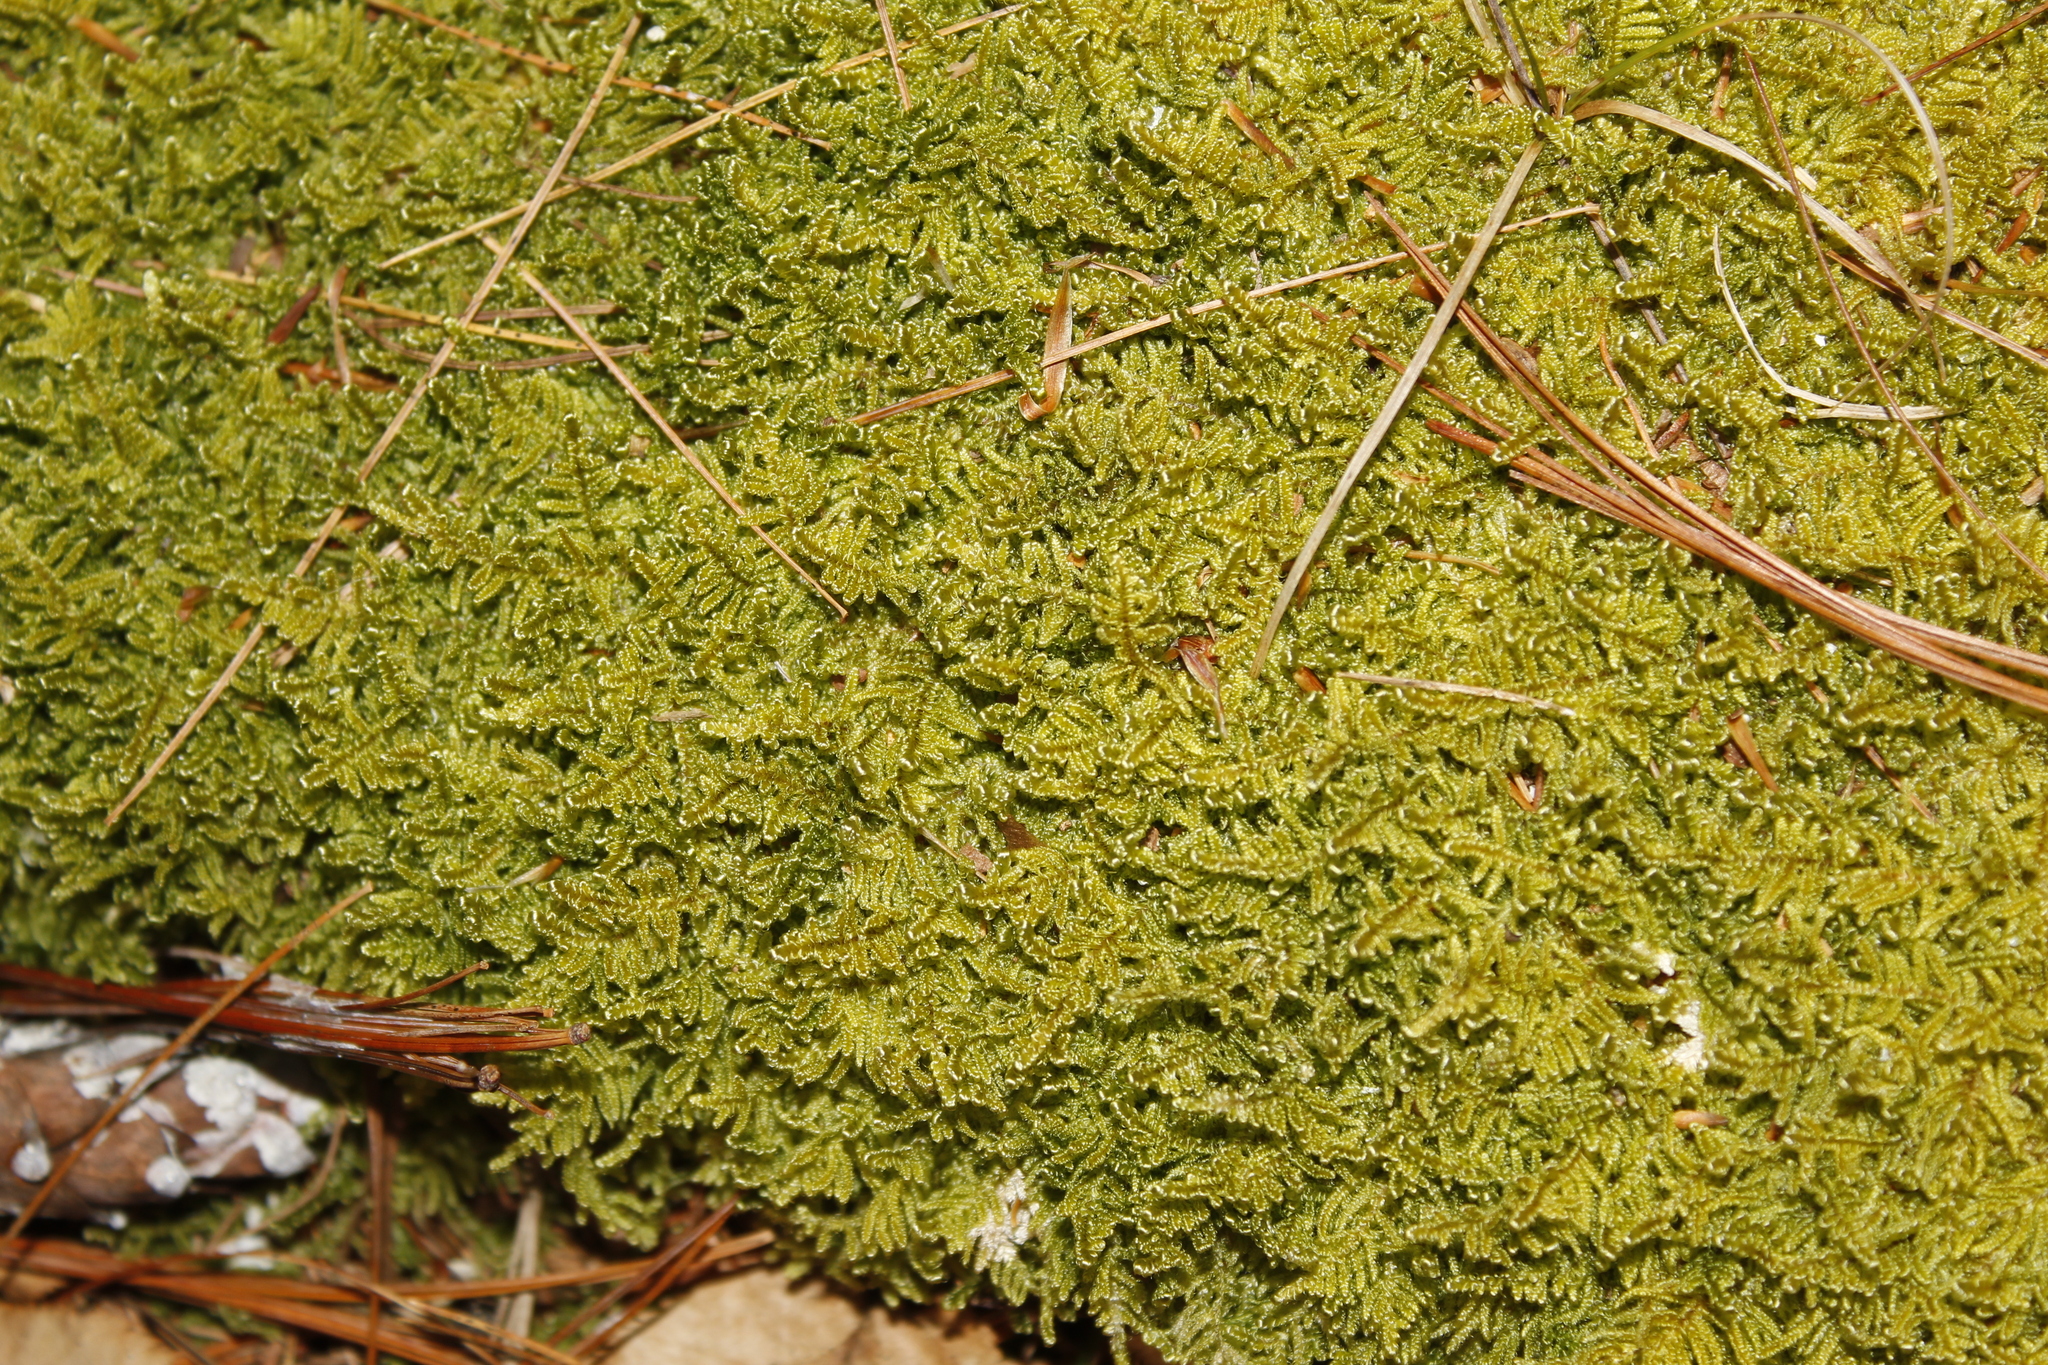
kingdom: Plantae
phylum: Bryophyta
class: Bryopsida
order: Hypnales
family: Callicladiaceae
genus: Callicladium
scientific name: Callicladium imponens
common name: Brocade moss
